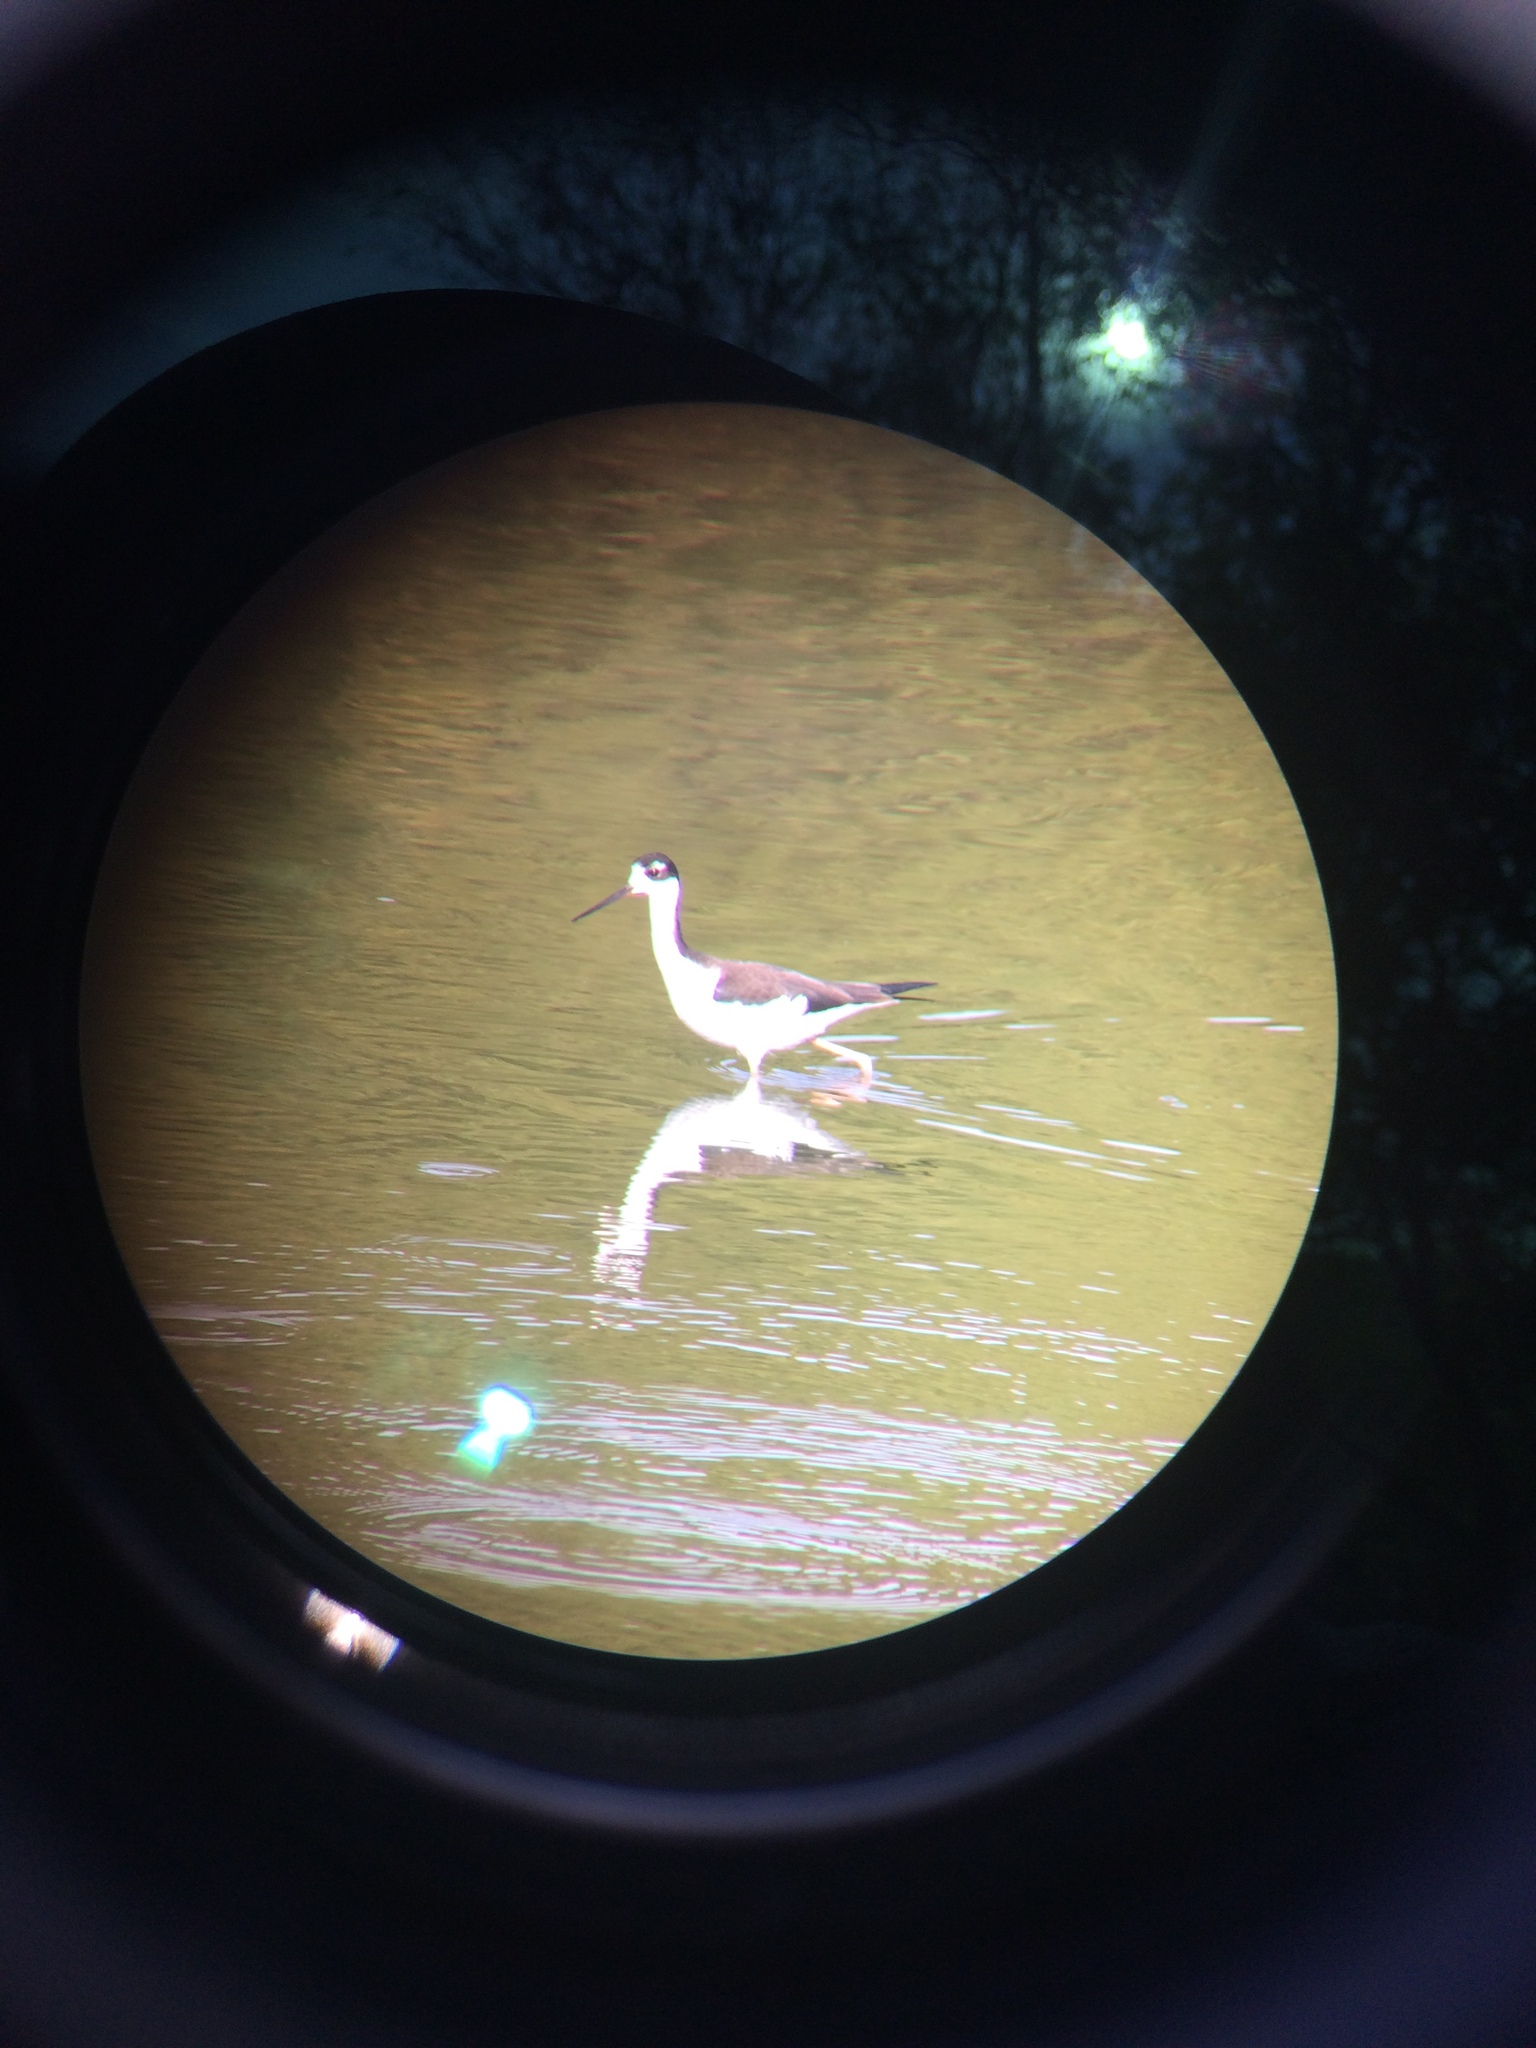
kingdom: Animalia
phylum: Chordata
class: Aves
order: Charadriiformes
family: Recurvirostridae
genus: Himantopus
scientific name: Himantopus mexicanus
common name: Black-necked stilt
